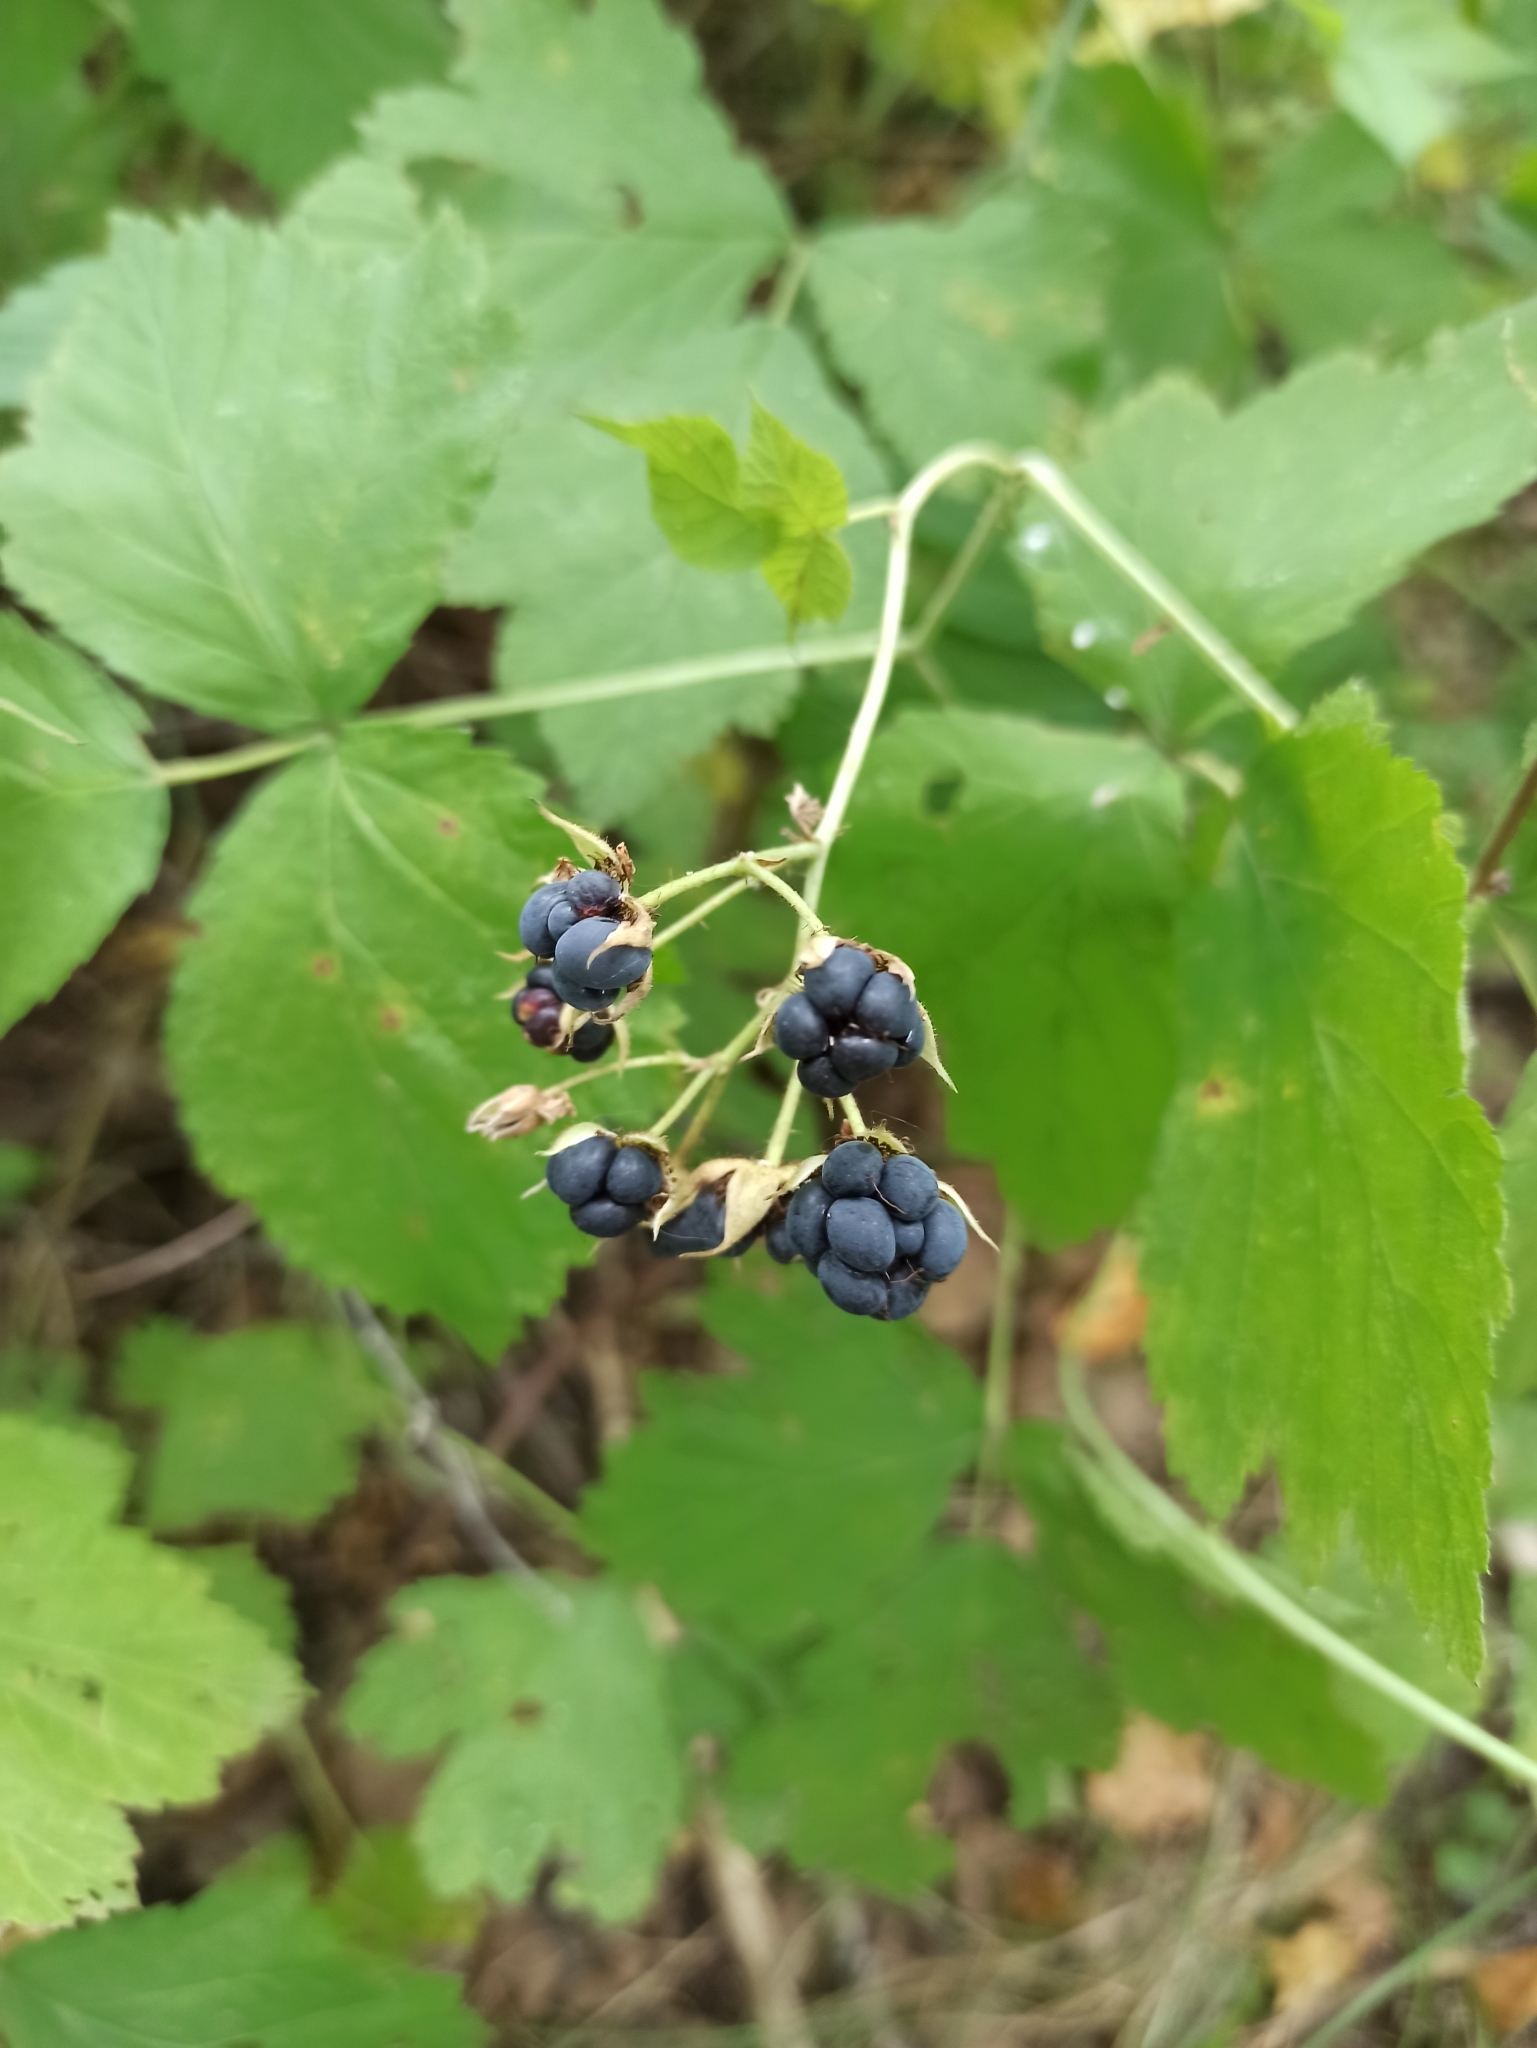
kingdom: Plantae
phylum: Tracheophyta
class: Magnoliopsida
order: Rosales
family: Rosaceae
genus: Rubus
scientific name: Rubus caesius
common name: Dewberry
